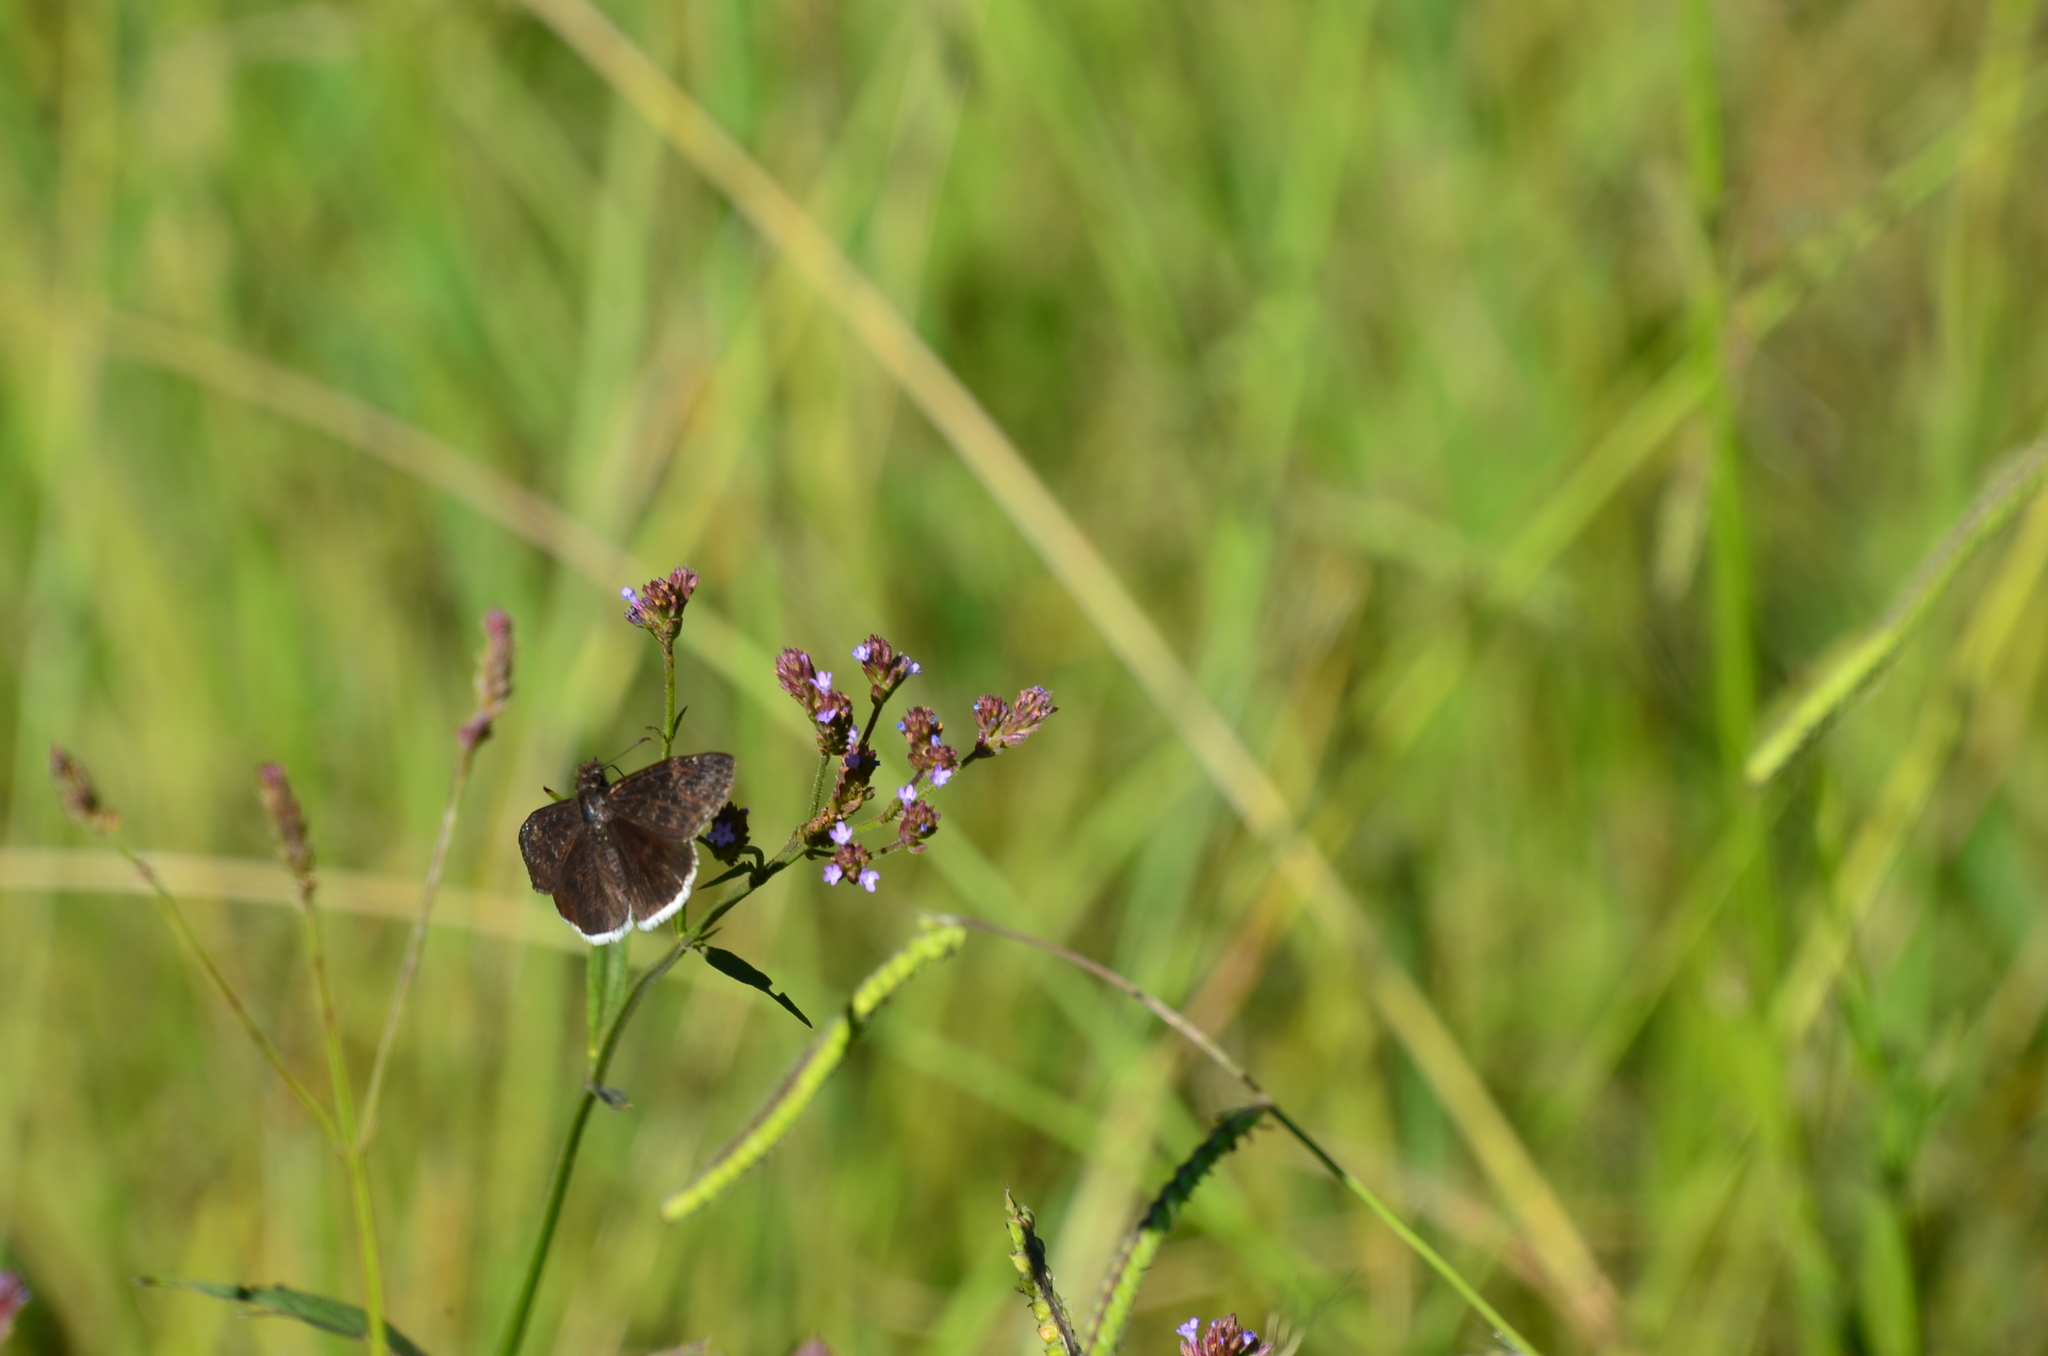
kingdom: Animalia
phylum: Arthropoda
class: Insecta
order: Lepidoptera
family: Hesperiidae
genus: Erynnis
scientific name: Erynnis funeralis
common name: Funereal duskywing
